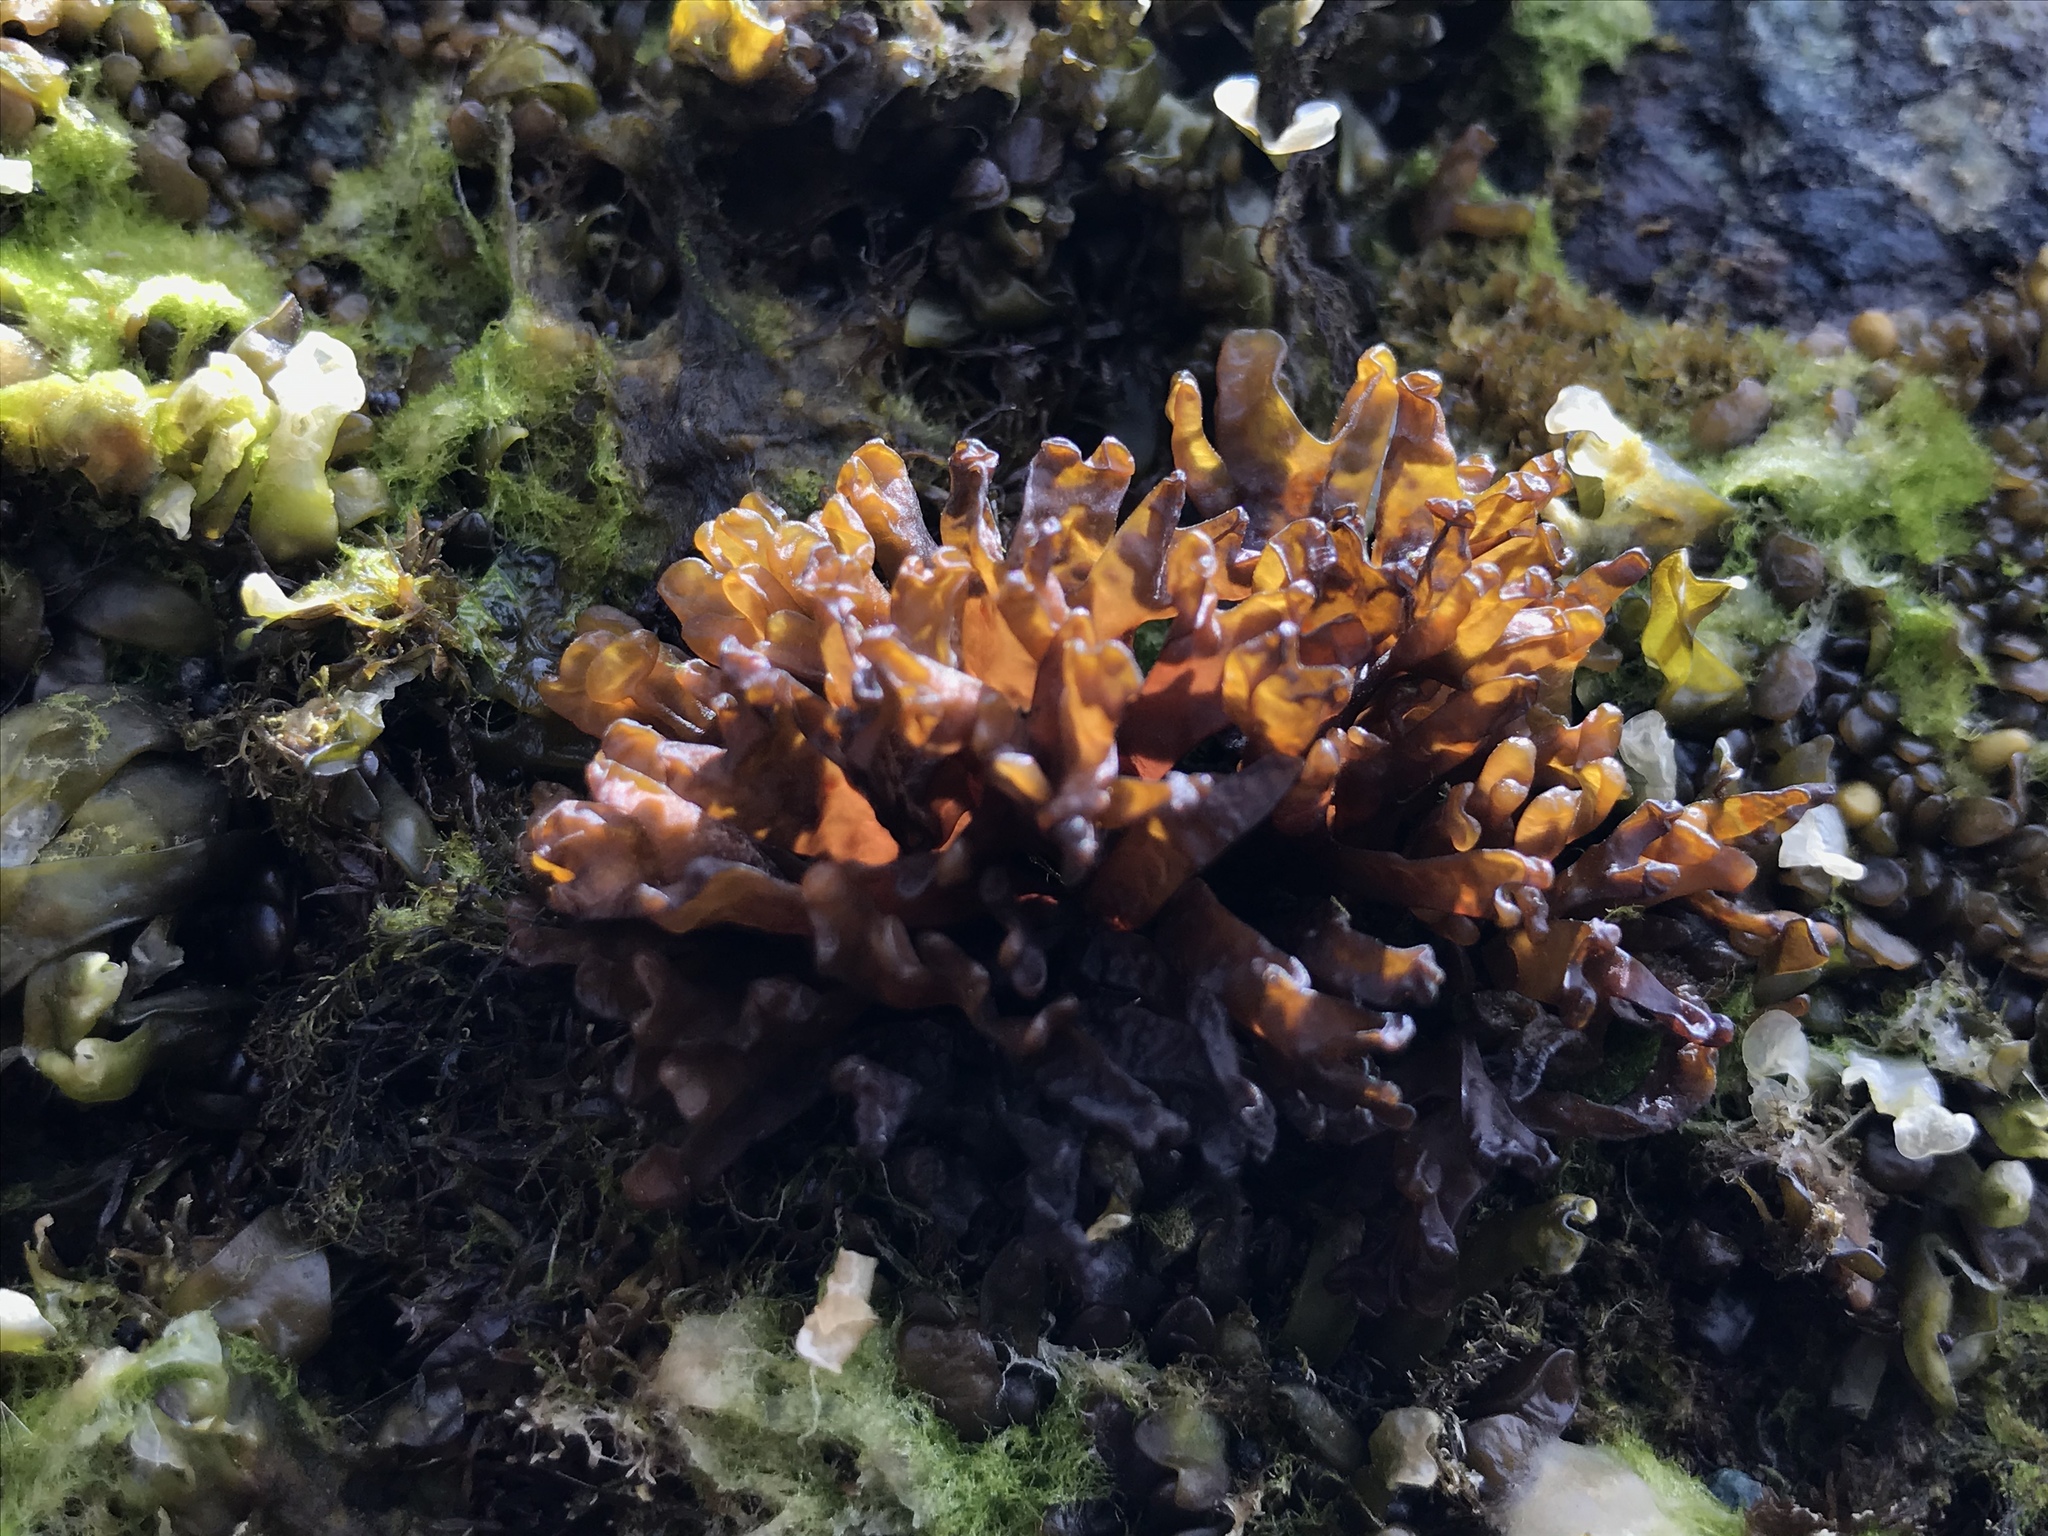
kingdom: Plantae
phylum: Rhodophyta
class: Florideophyceae
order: Nemaliales
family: Scinaiaceae
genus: Nothogenia
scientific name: Nothogenia fastigiata
